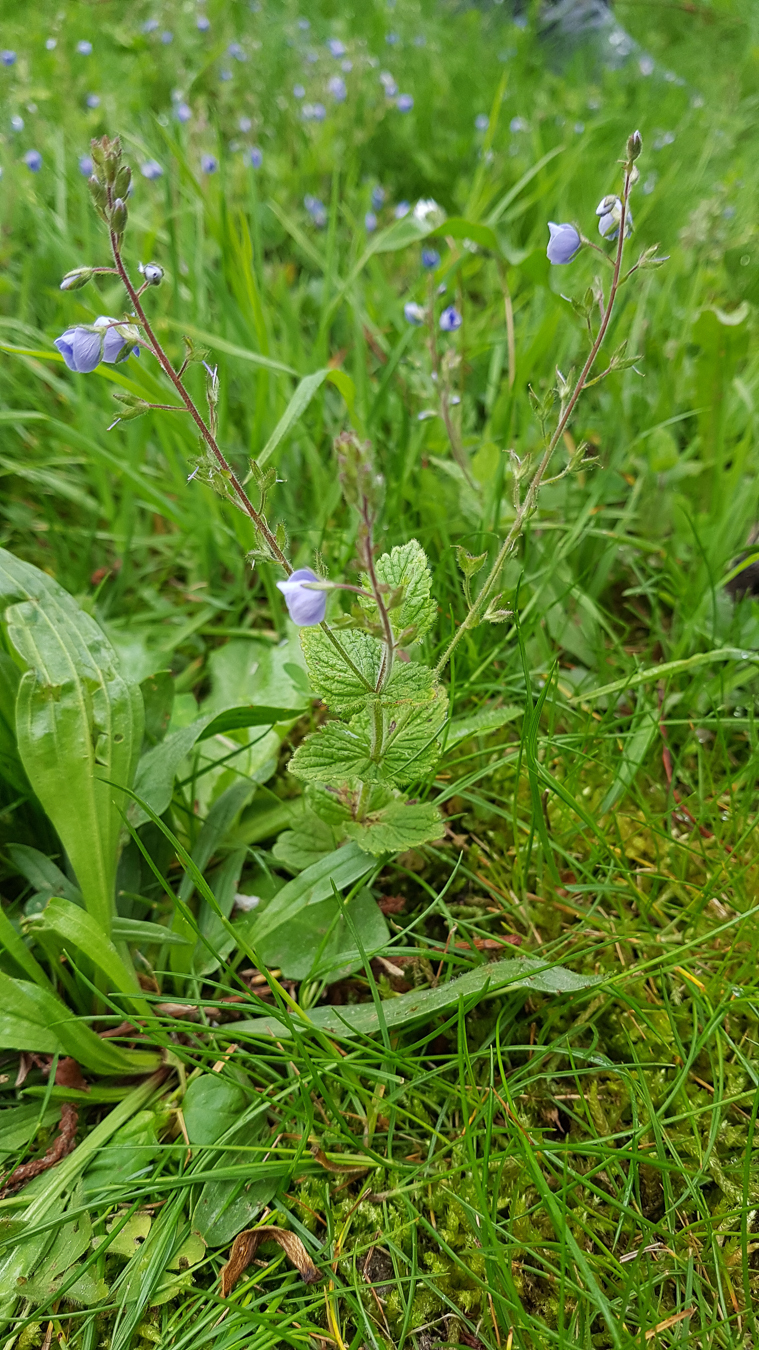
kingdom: Plantae
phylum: Tracheophyta
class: Magnoliopsida
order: Lamiales
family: Plantaginaceae
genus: Veronica
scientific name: Veronica chamaedrys
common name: Germander speedwell
